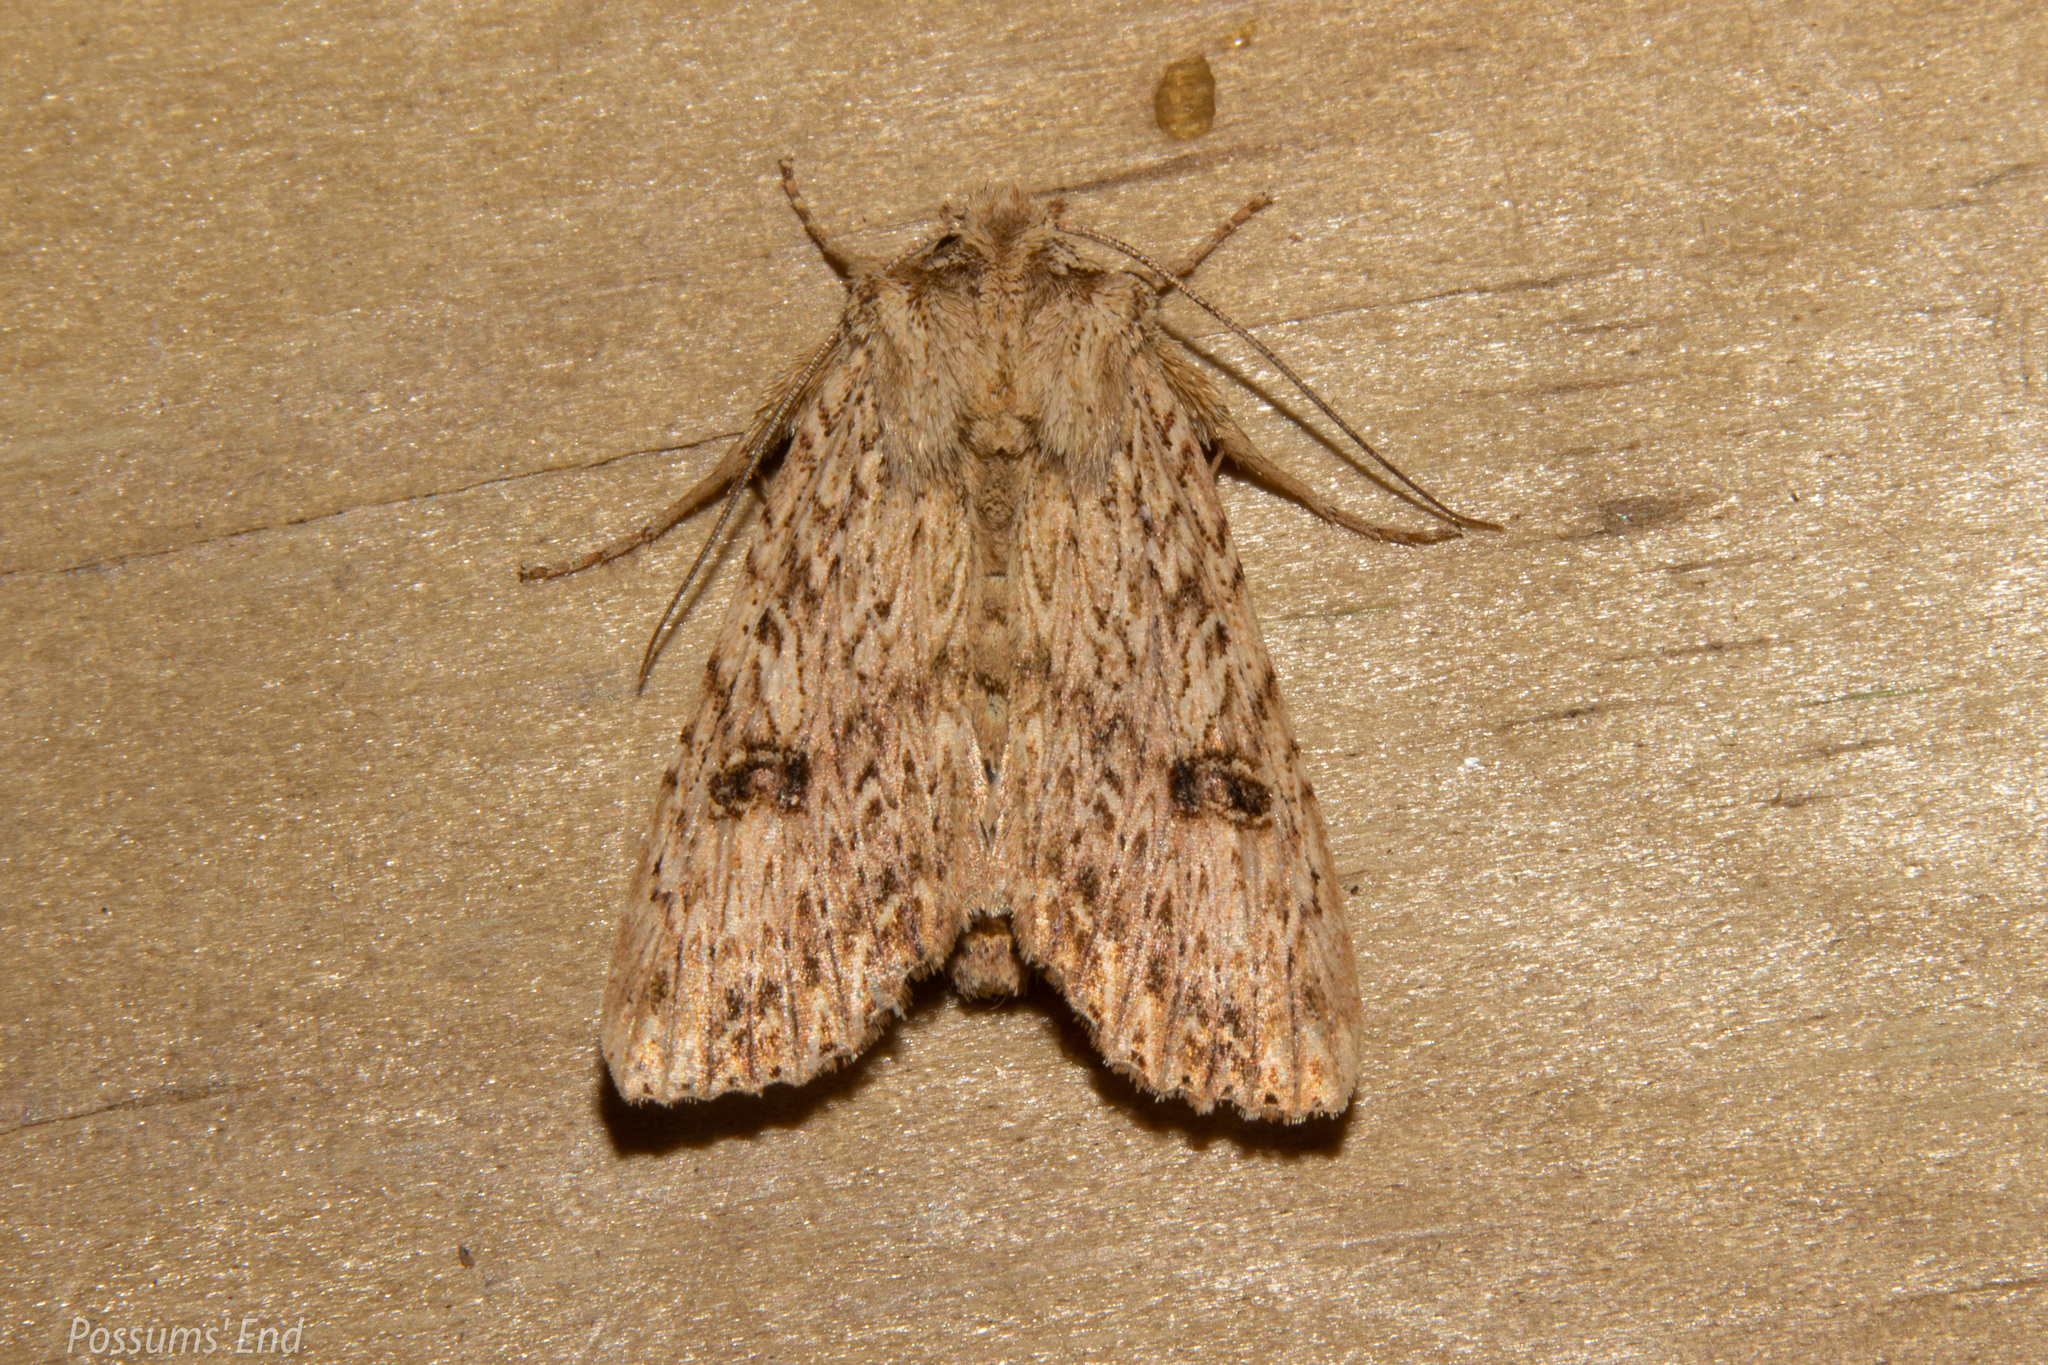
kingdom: Animalia
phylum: Arthropoda
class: Insecta
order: Lepidoptera
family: Noctuidae
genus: Meterana
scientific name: Meterana pansicolor
